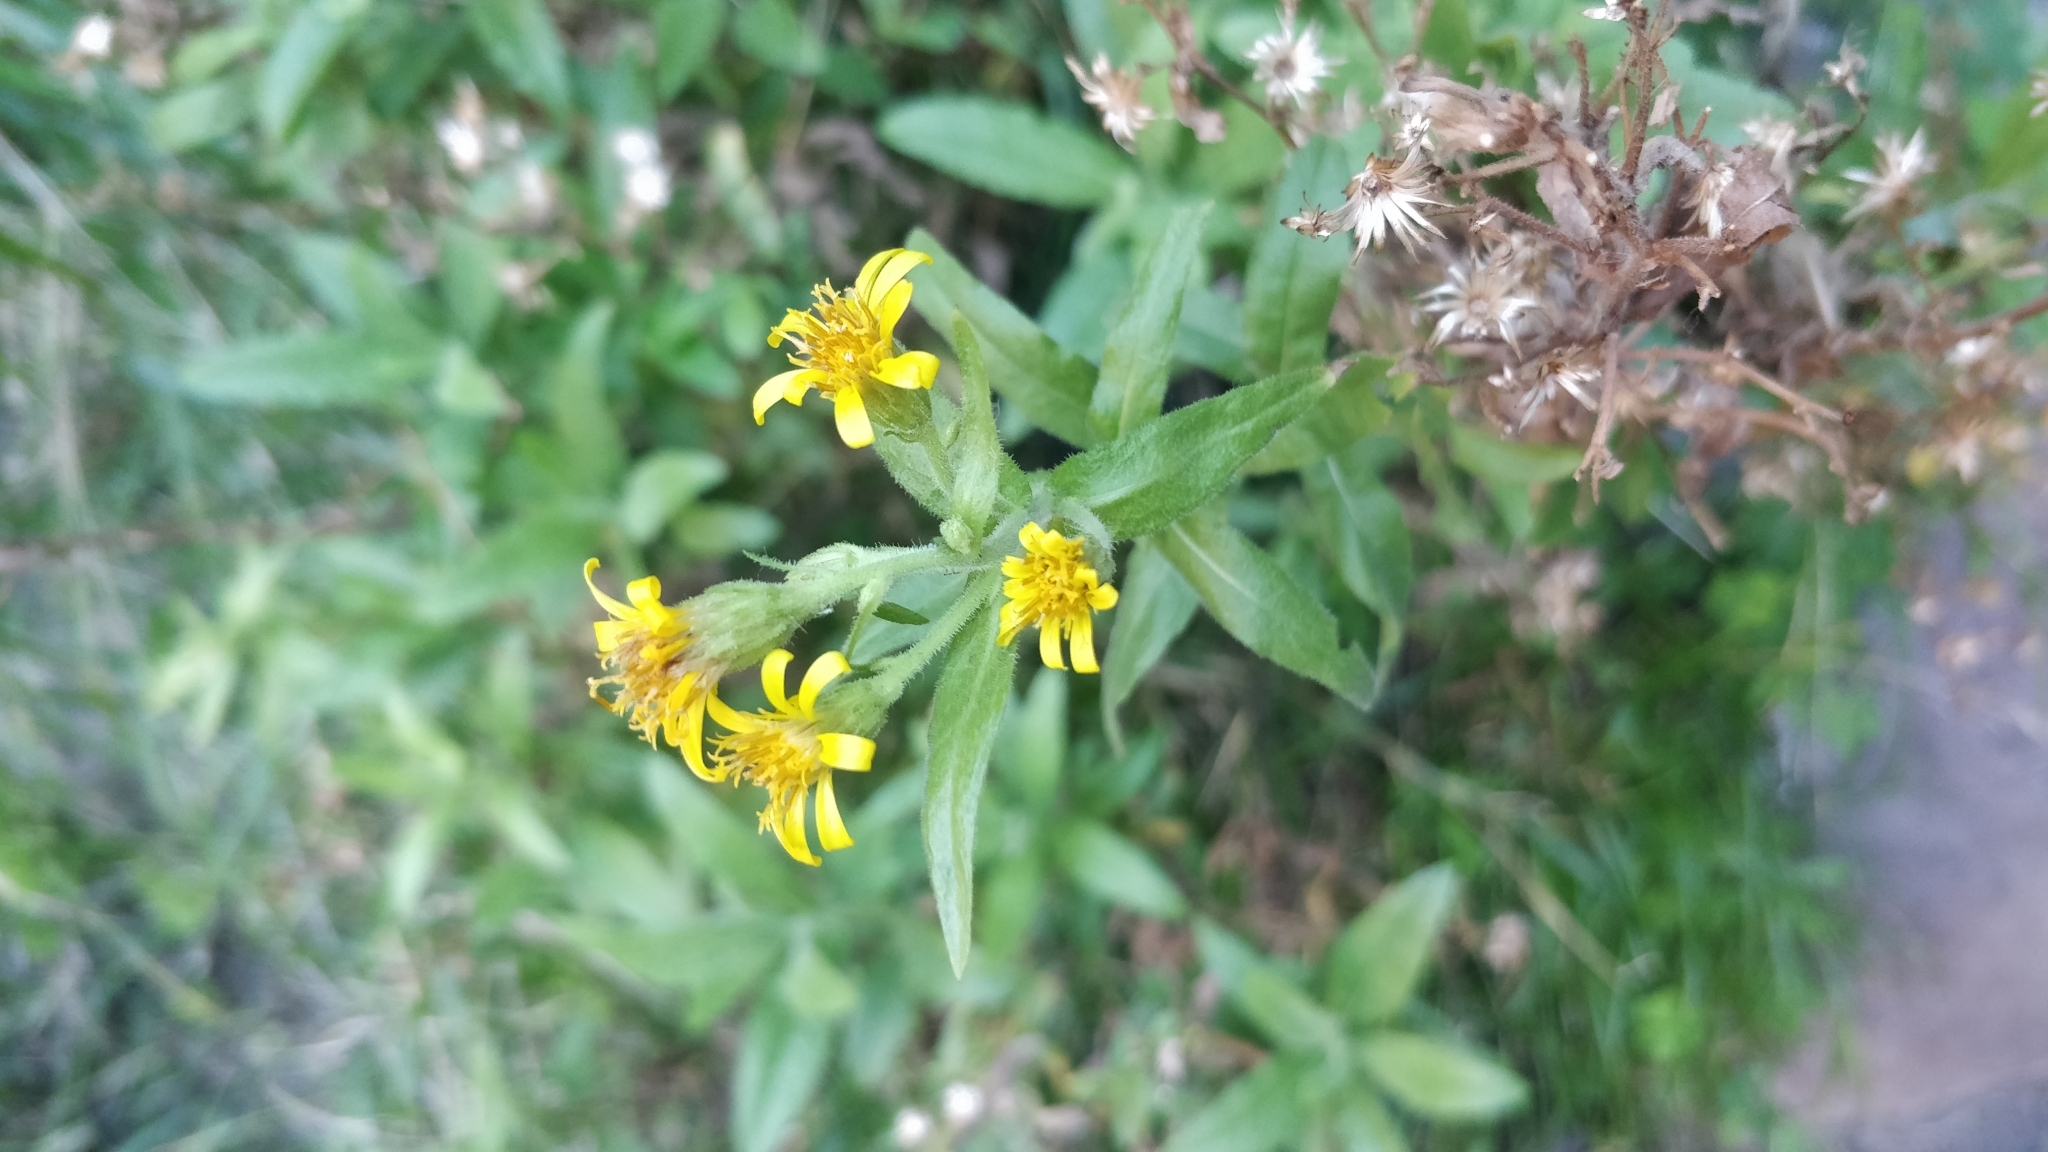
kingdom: Plantae
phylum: Tracheophyta
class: Magnoliopsida
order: Asterales
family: Asteraceae
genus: Dittrichia
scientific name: Dittrichia viscosa
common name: Woody fleabane
